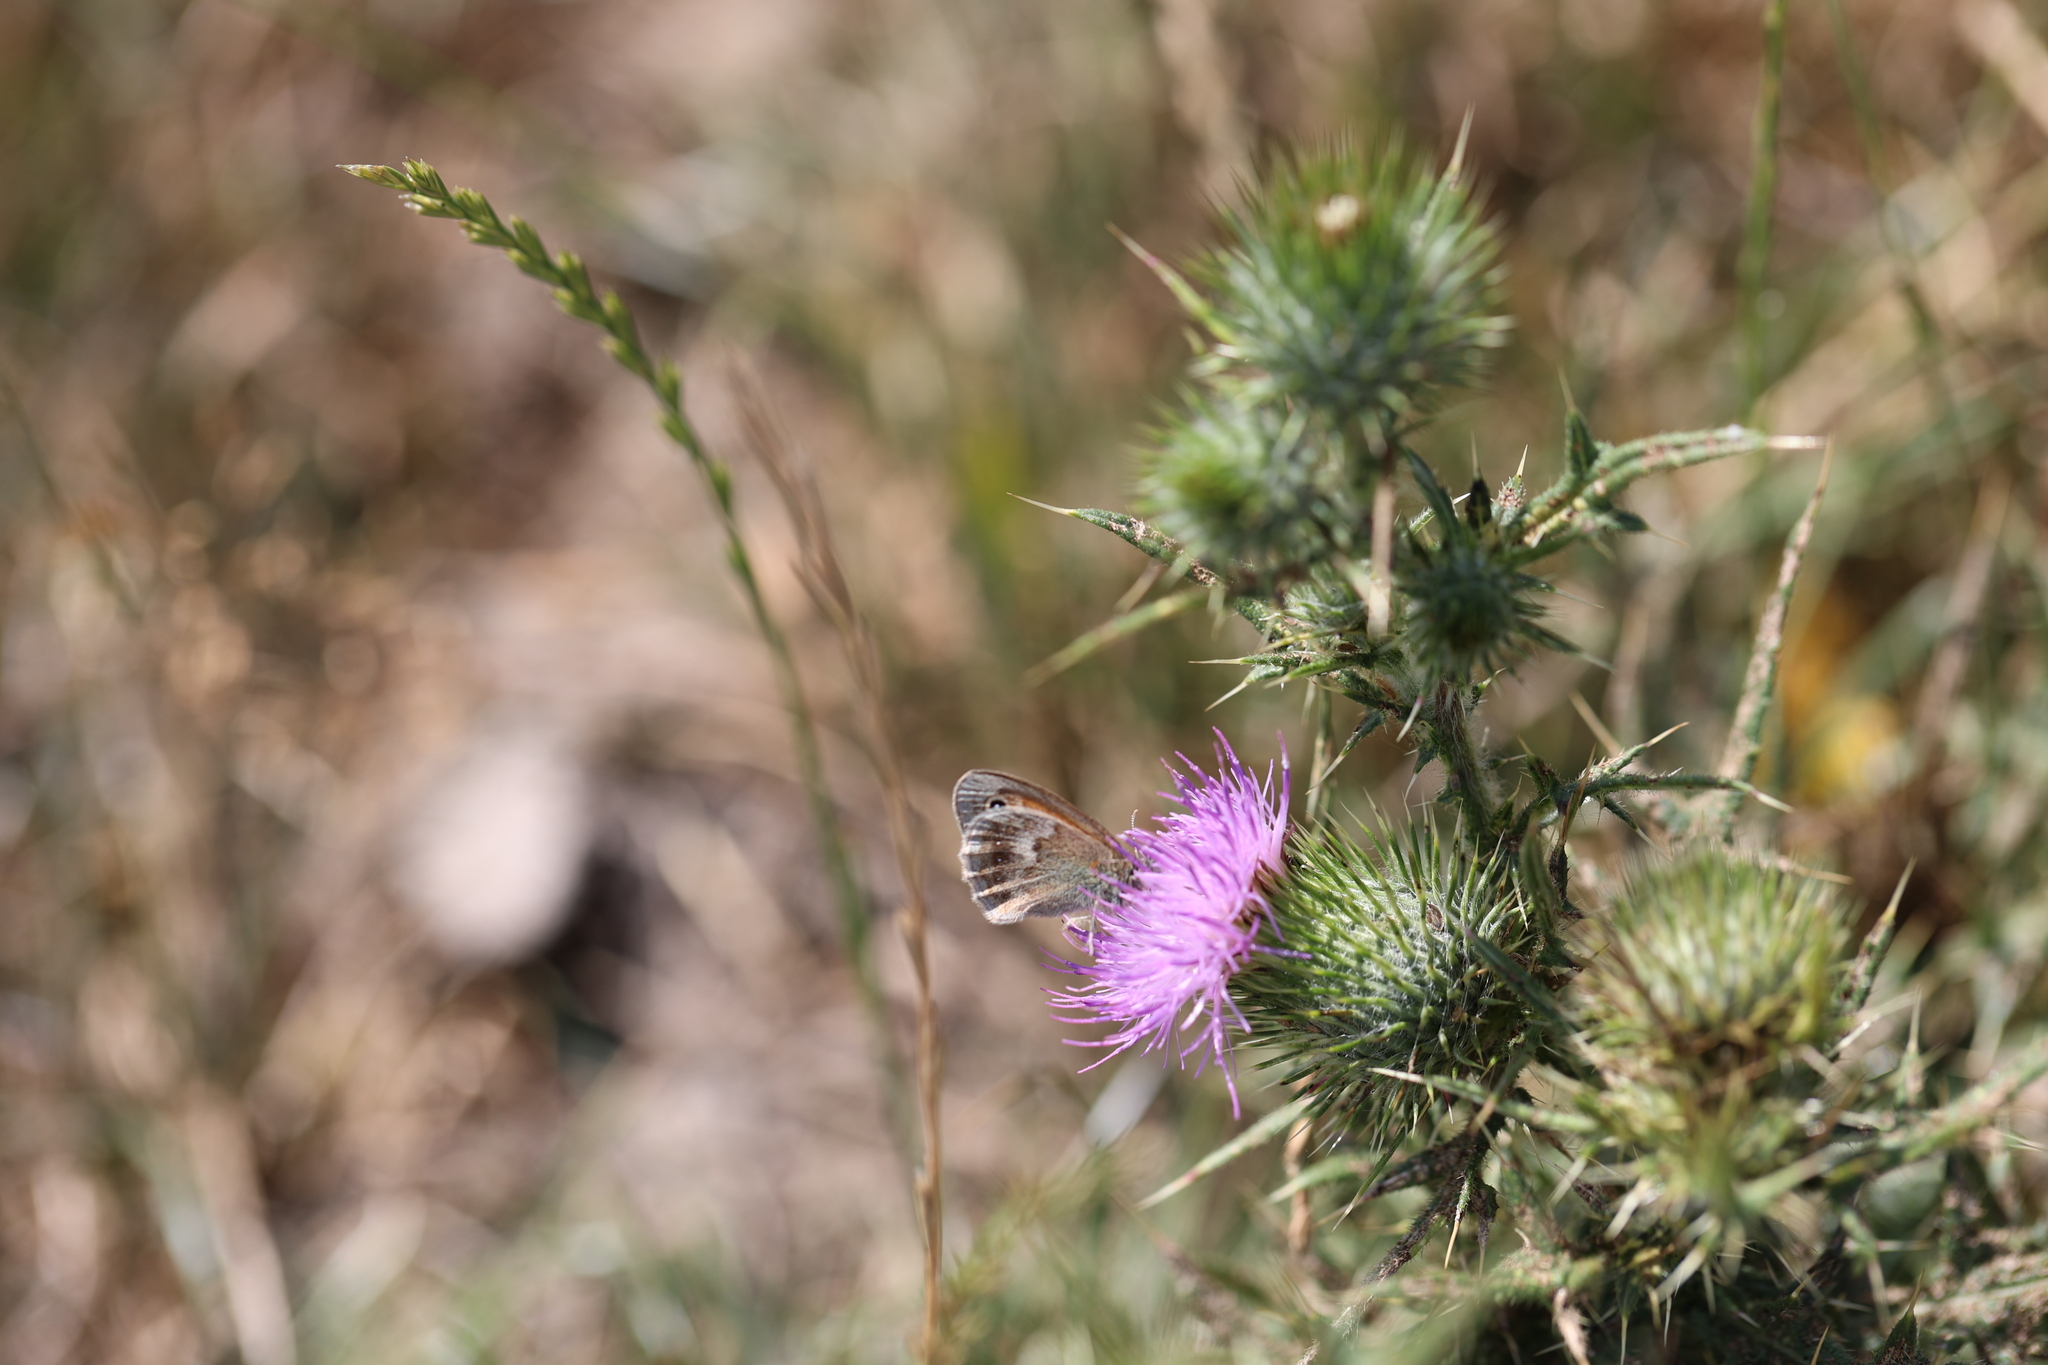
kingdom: Animalia
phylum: Arthropoda
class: Insecta
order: Lepidoptera
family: Nymphalidae
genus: Coenonympha
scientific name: Coenonympha pamphilus
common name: Small heath
